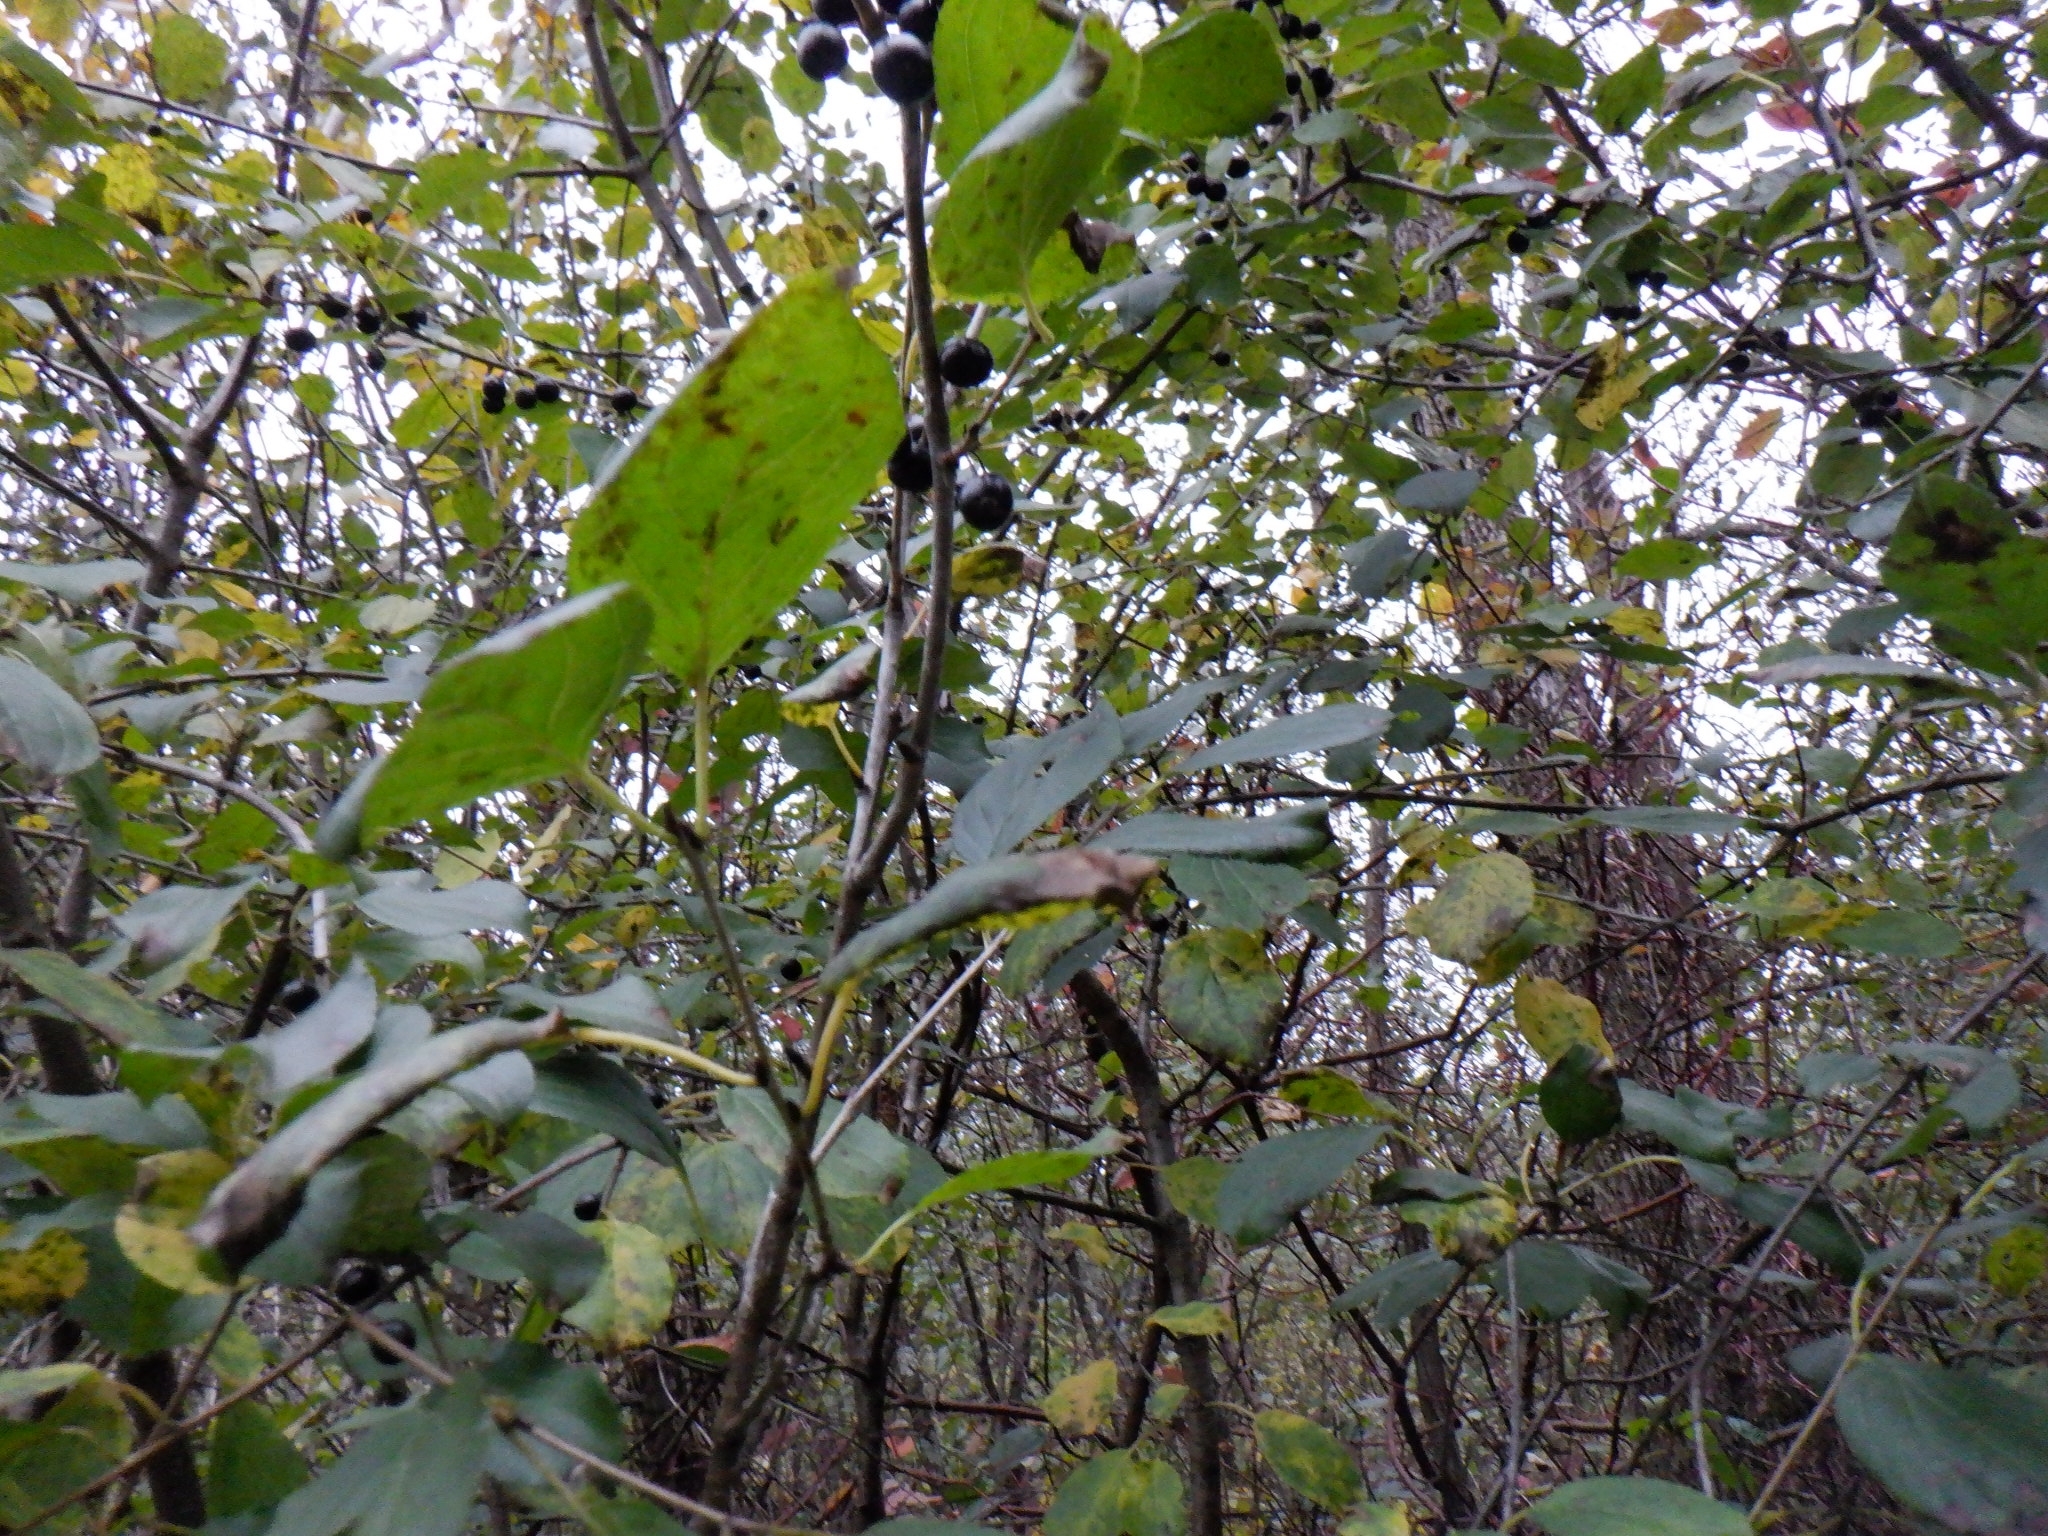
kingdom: Plantae
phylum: Tracheophyta
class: Magnoliopsida
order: Rosales
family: Rhamnaceae
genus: Rhamnus
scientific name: Rhamnus cathartica
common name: Common buckthorn
